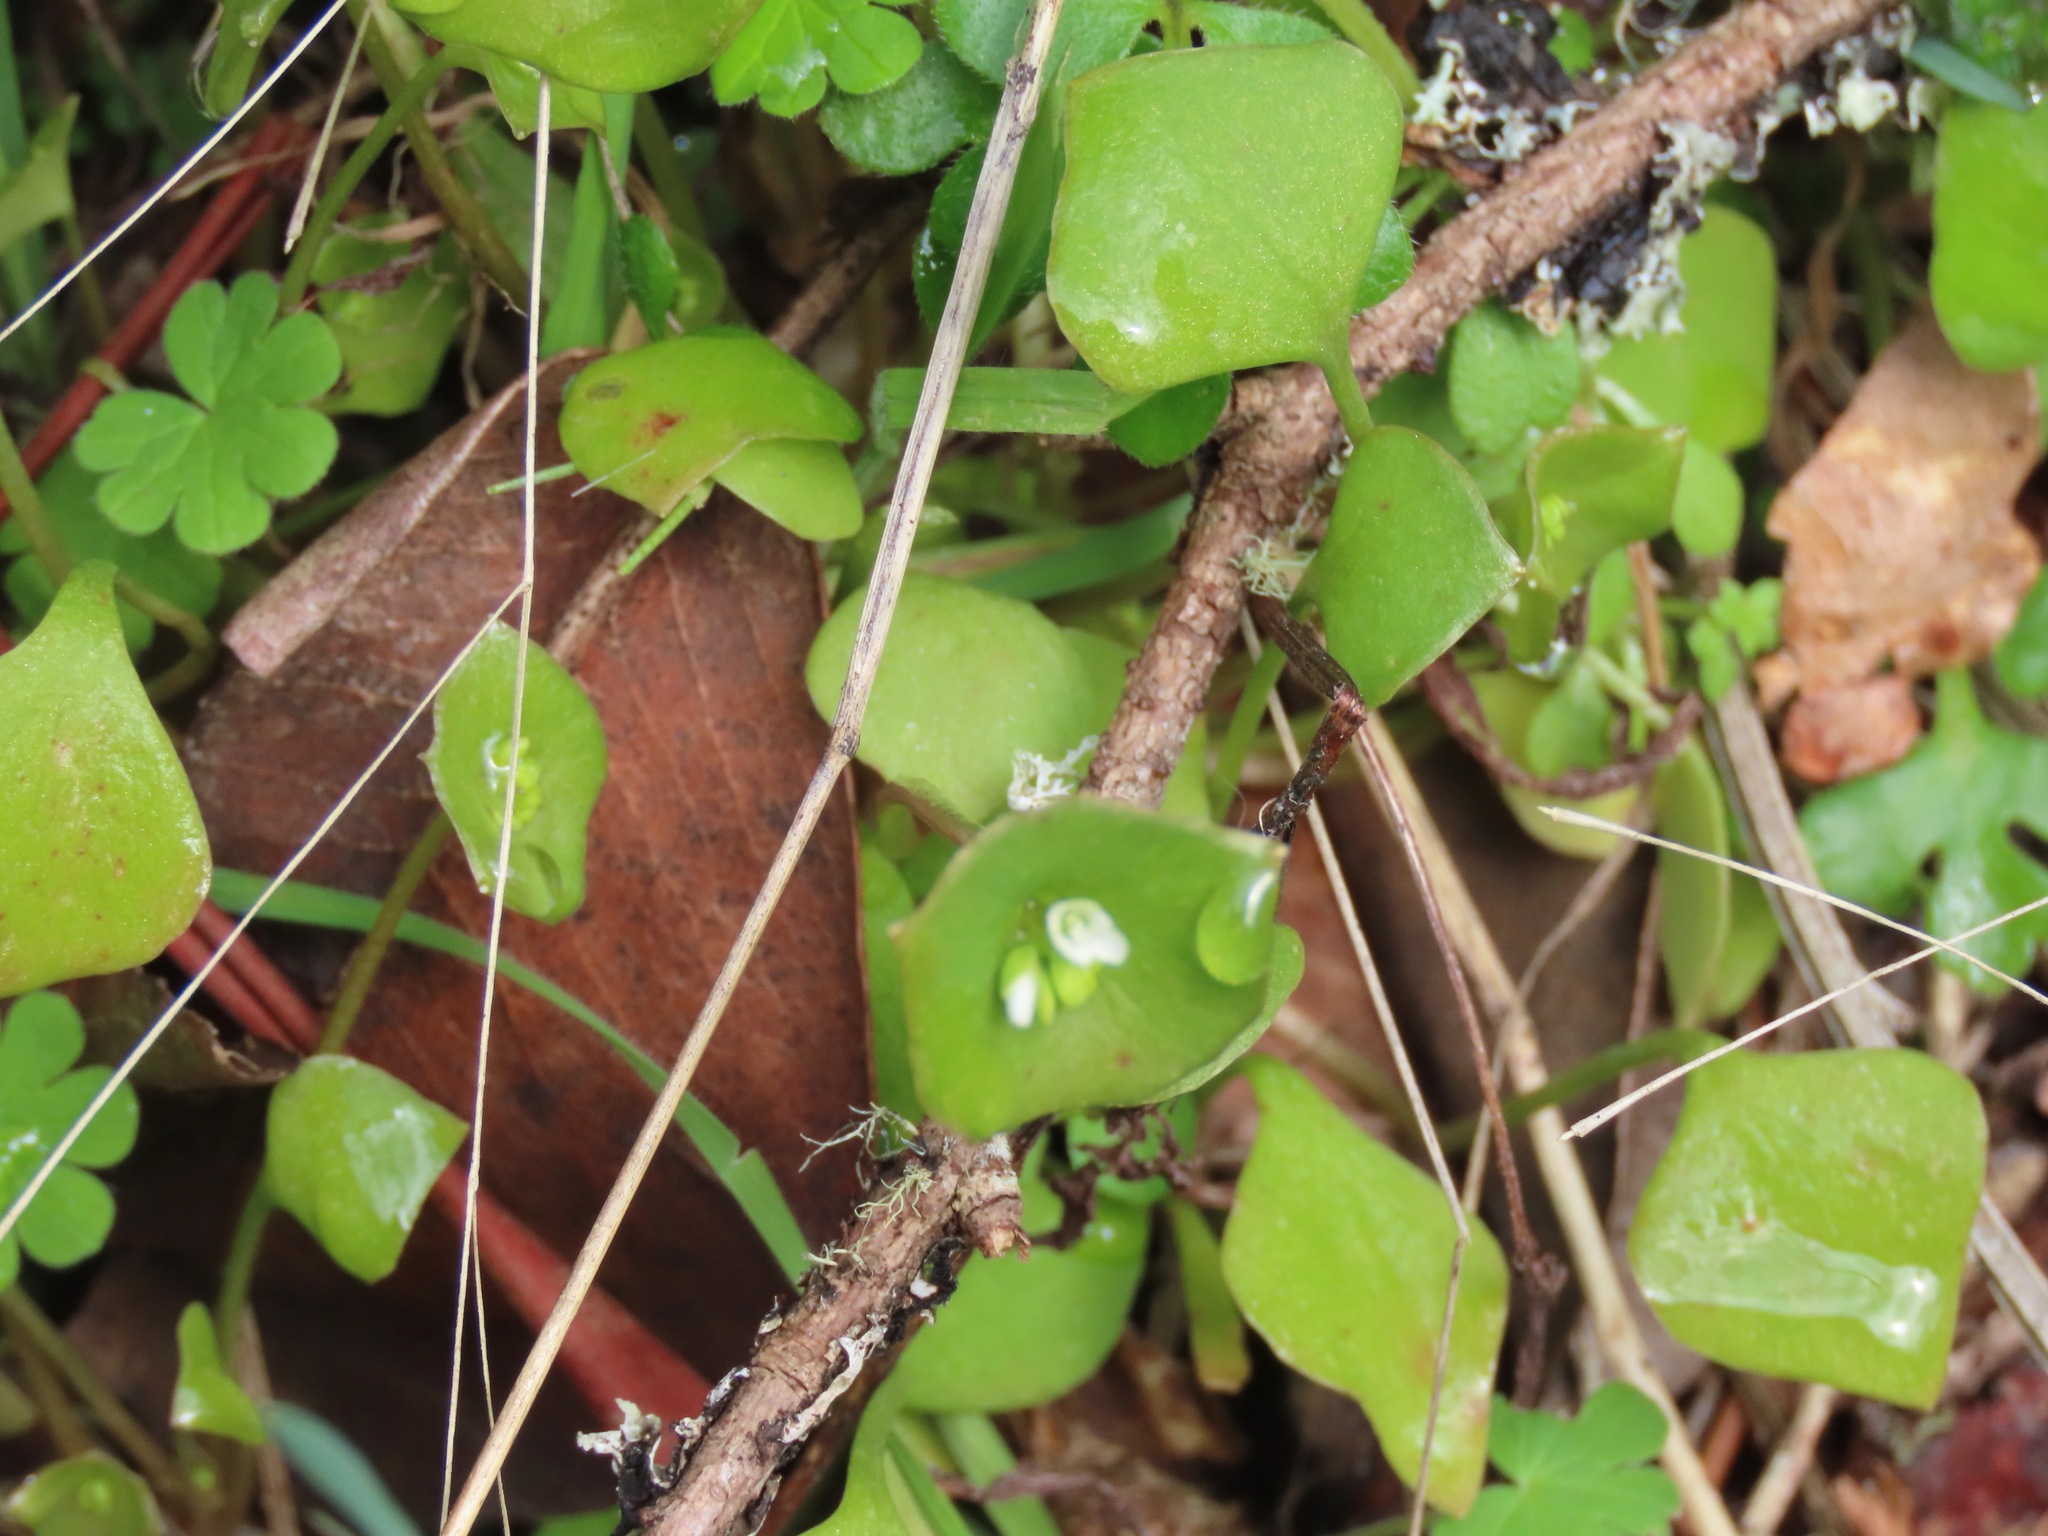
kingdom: Plantae
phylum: Tracheophyta
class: Magnoliopsida
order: Caryophyllales
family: Montiaceae
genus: Claytonia
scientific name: Claytonia perfoliata
